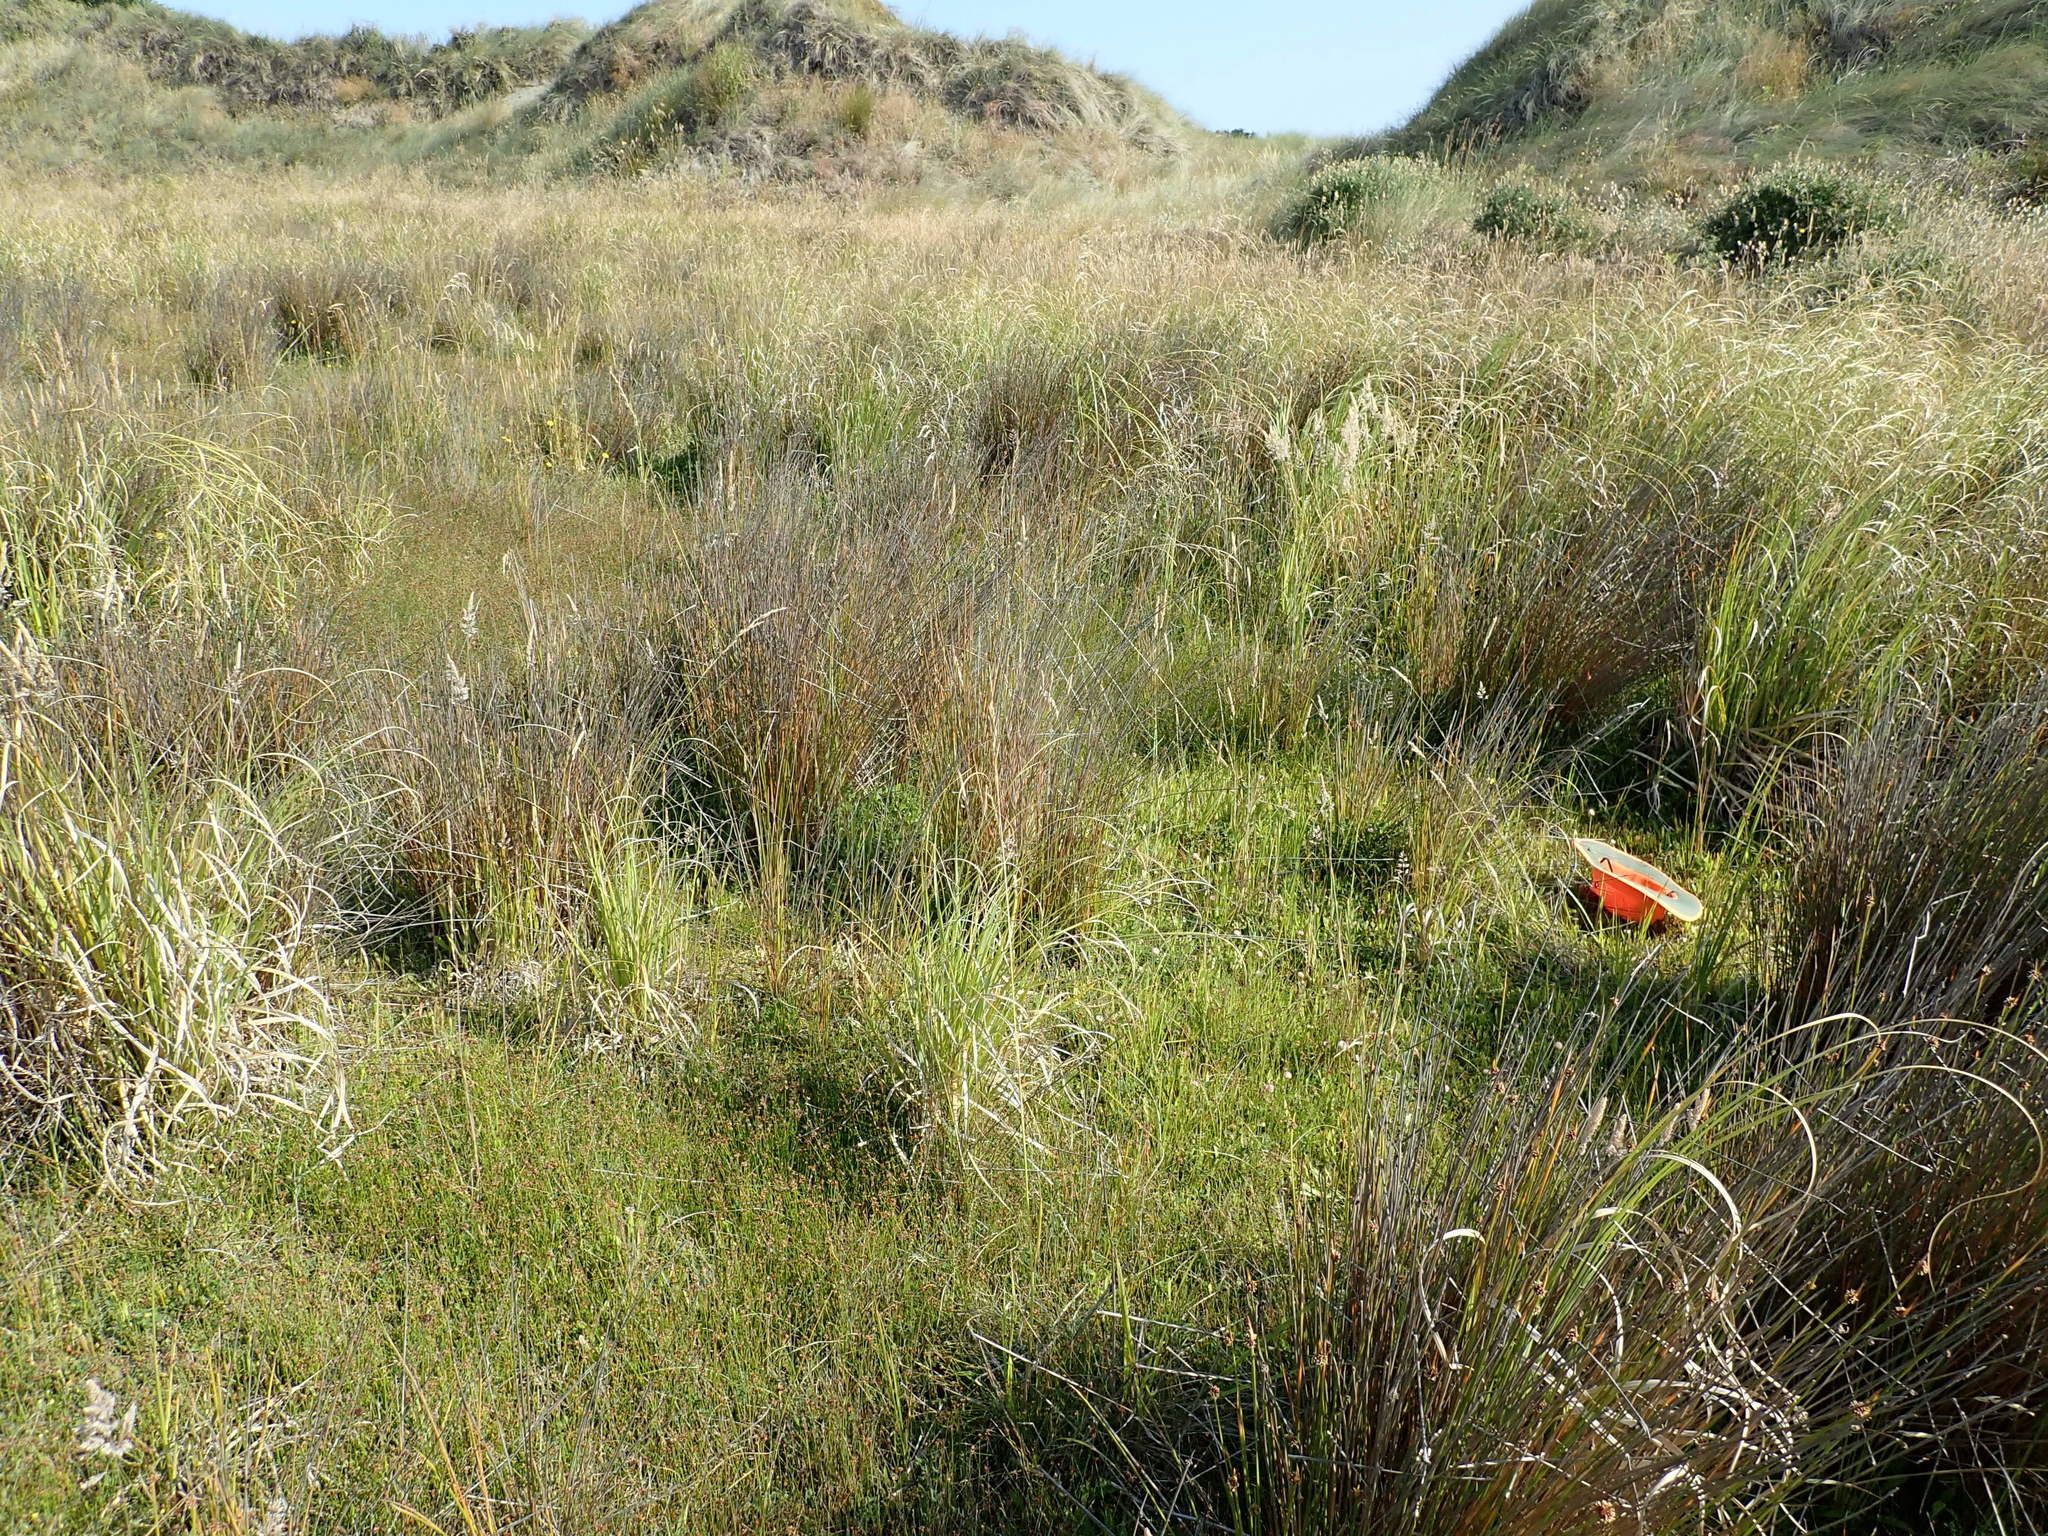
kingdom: Plantae
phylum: Tracheophyta
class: Liliopsida
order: Alismatales
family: Juncaginaceae
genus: Triglochin
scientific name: Triglochin striata
